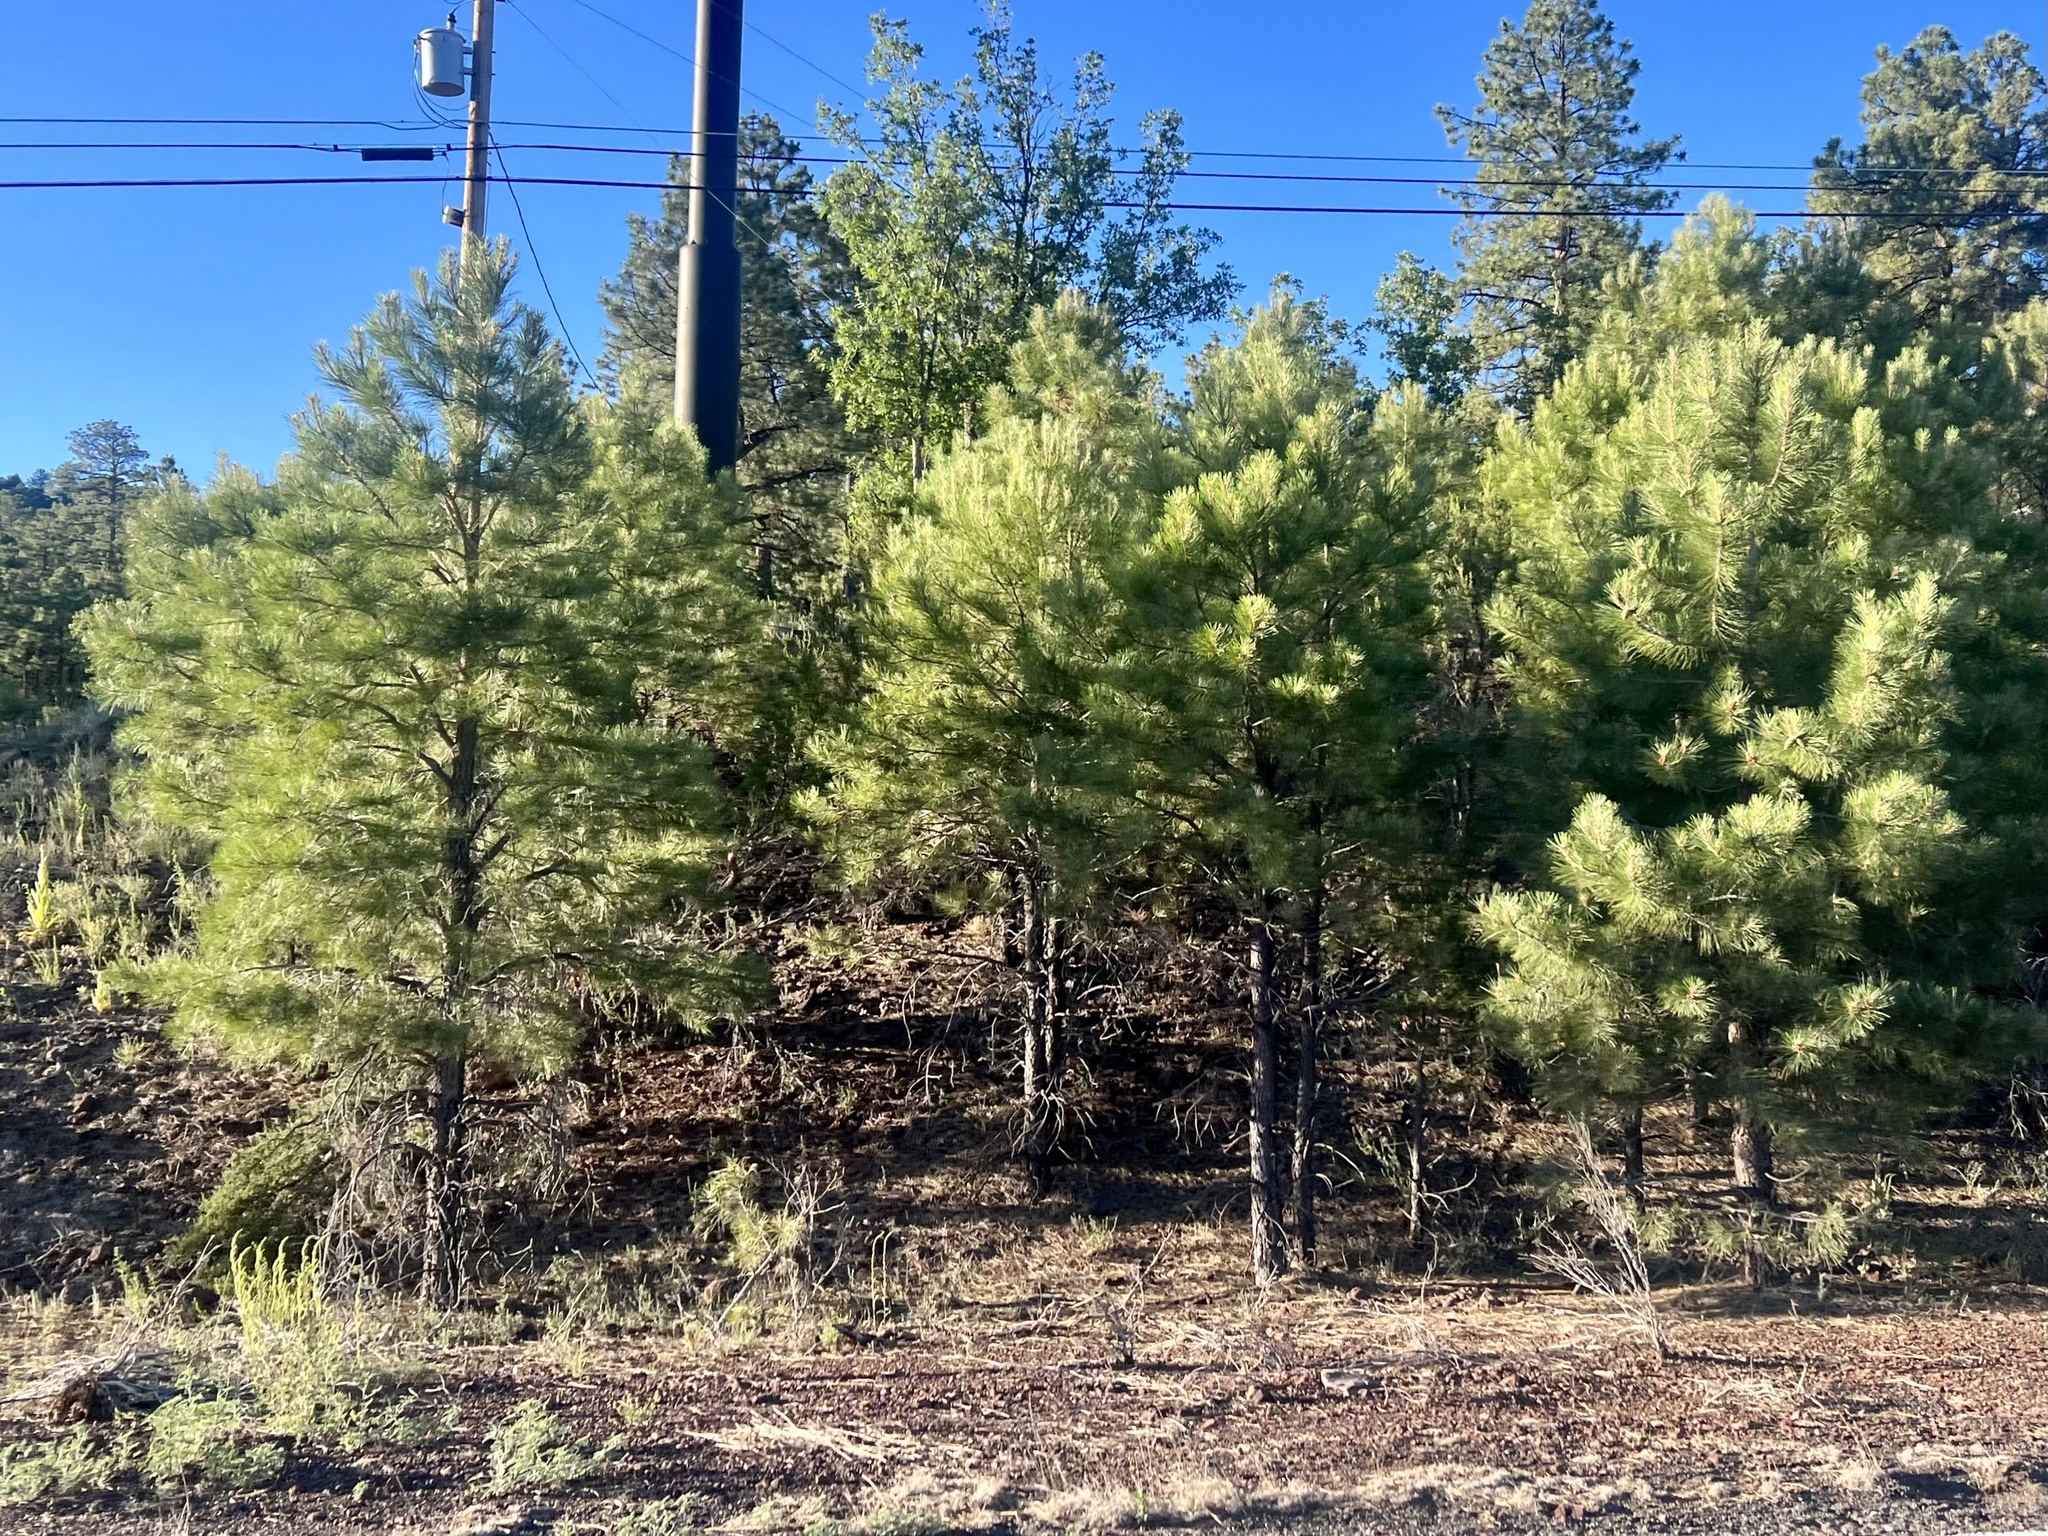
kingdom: Plantae
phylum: Tracheophyta
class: Pinopsida
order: Pinales
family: Pinaceae
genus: Pinus
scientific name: Pinus ponderosa
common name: Western yellow-pine
